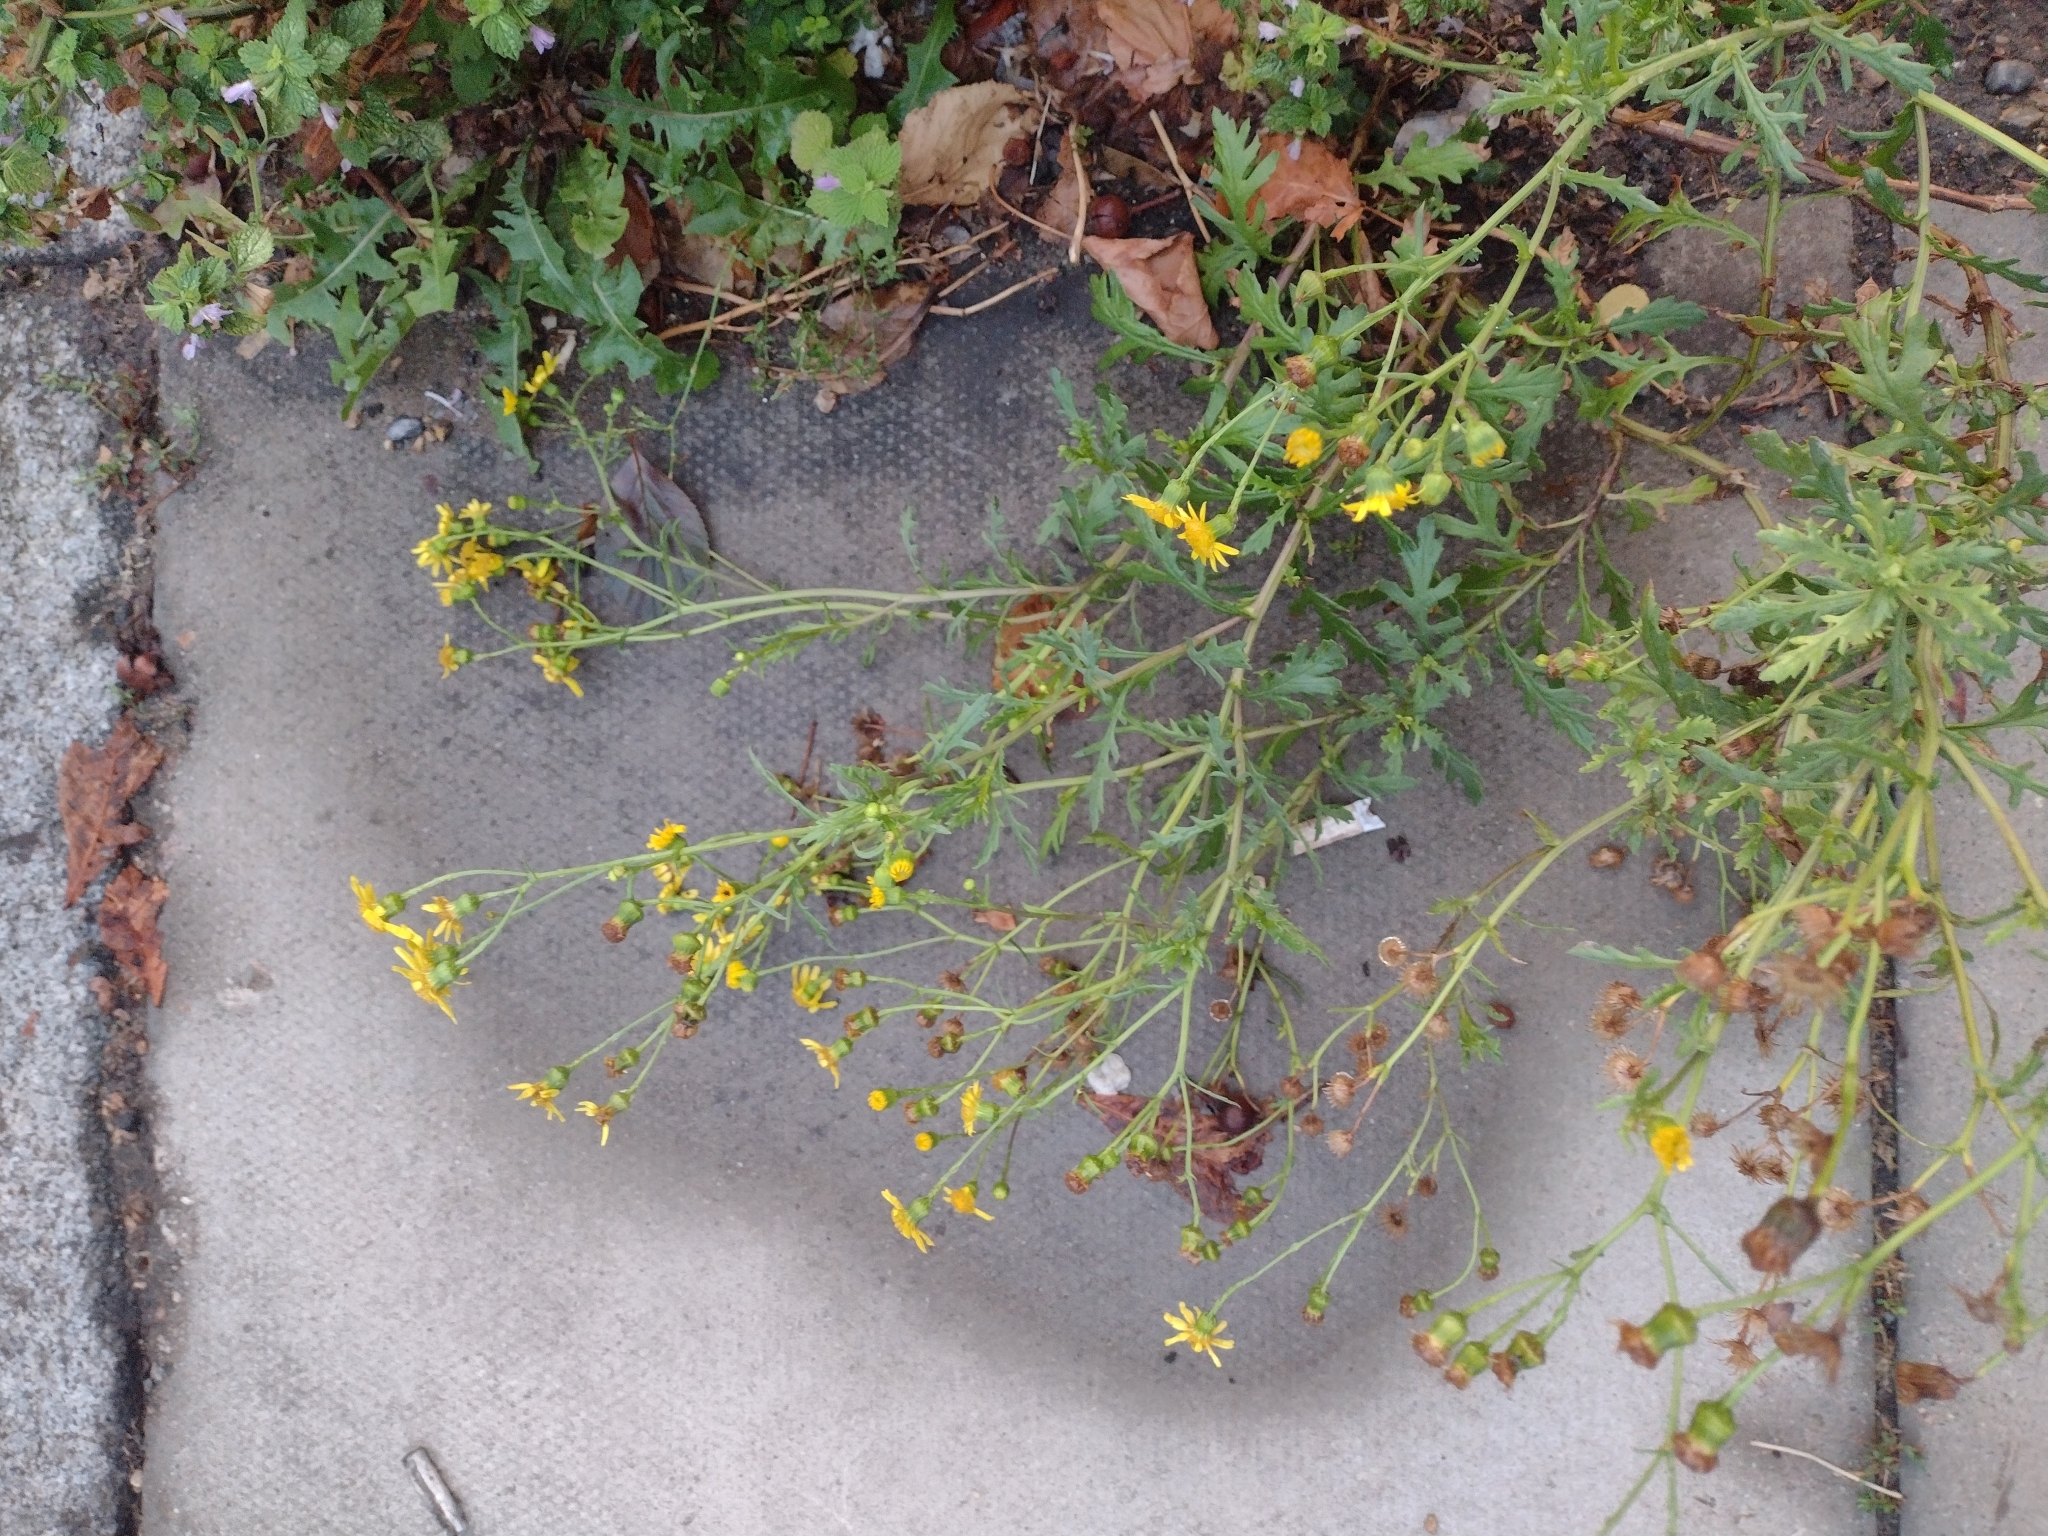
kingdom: Plantae
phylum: Tracheophyta
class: Magnoliopsida
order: Asterales
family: Asteraceae
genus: Senecio
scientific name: Senecio squalidus
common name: Oxford ragwort
